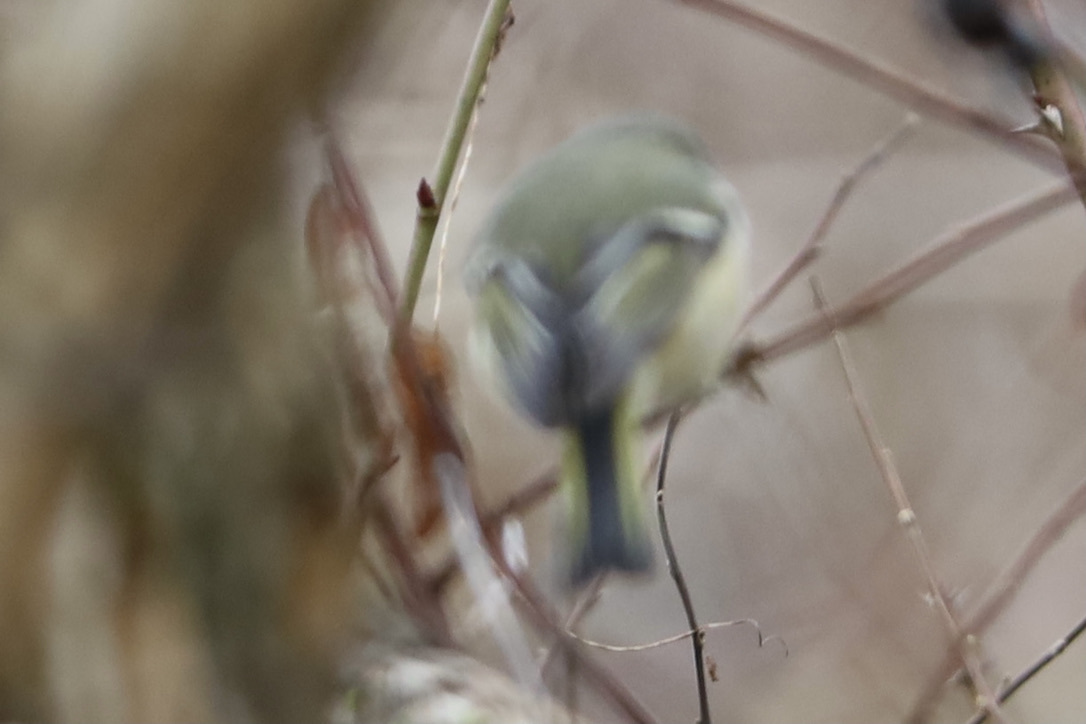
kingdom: Animalia
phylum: Chordata
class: Aves
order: Passeriformes
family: Regulidae
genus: Regulus
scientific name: Regulus calendula
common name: Ruby-crowned kinglet
